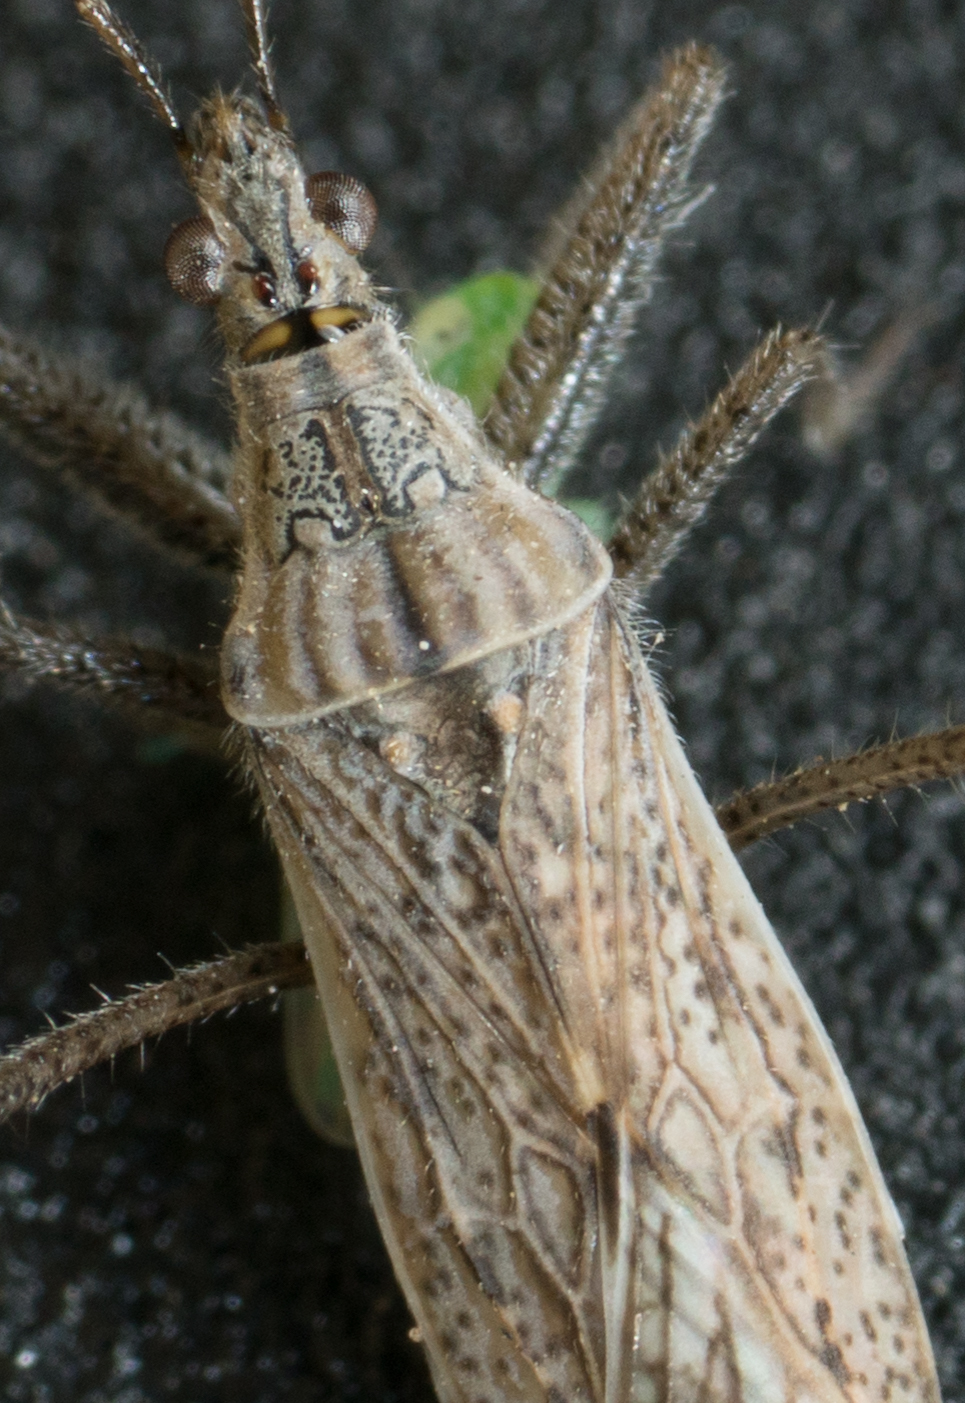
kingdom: Animalia
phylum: Arthropoda
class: Insecta
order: Hemiptera
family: Nabidae
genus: Nabis
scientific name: Nabis americoferus
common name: Common damsel bug
